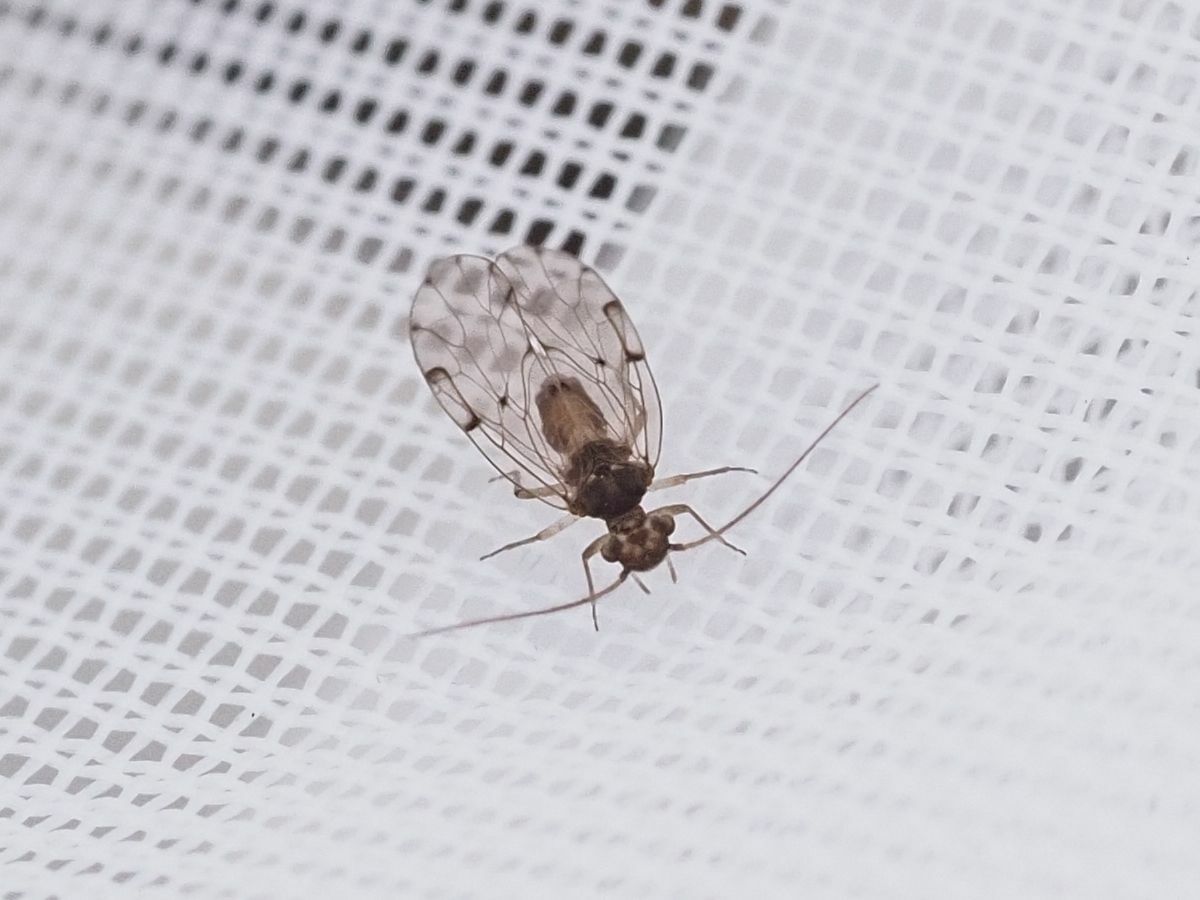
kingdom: Animalia
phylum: Arthropoda
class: Insecta
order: Psocodea
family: Ectopsocidae
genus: Ectopsocus
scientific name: Ectopsocus petersi
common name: Medium-sized bark louse
